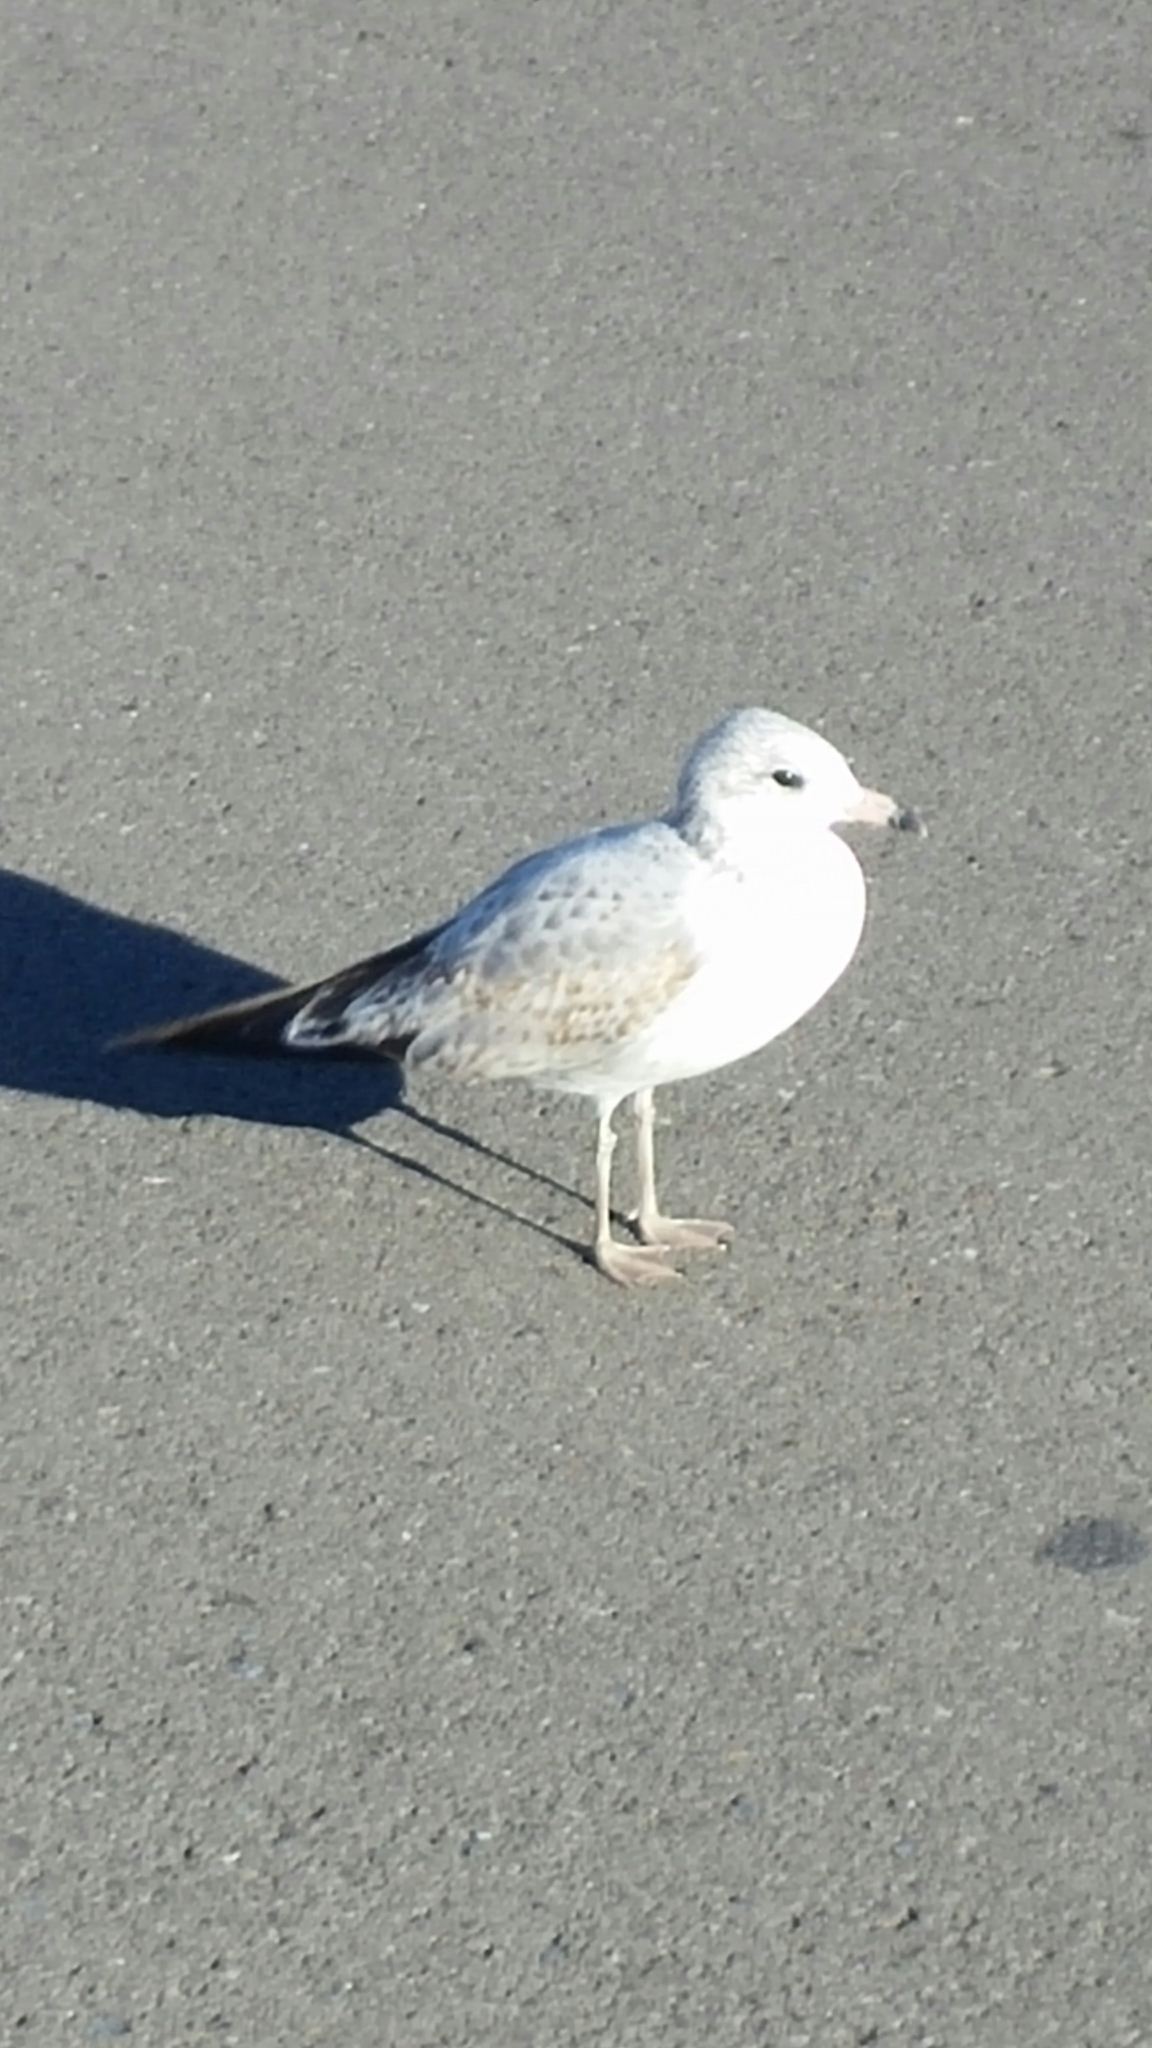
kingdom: Animalia
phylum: Chordata
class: Aves
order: Charadriiformes
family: Laridae
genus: Larus
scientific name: Larus delawarensis
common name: Ring-billed gull
